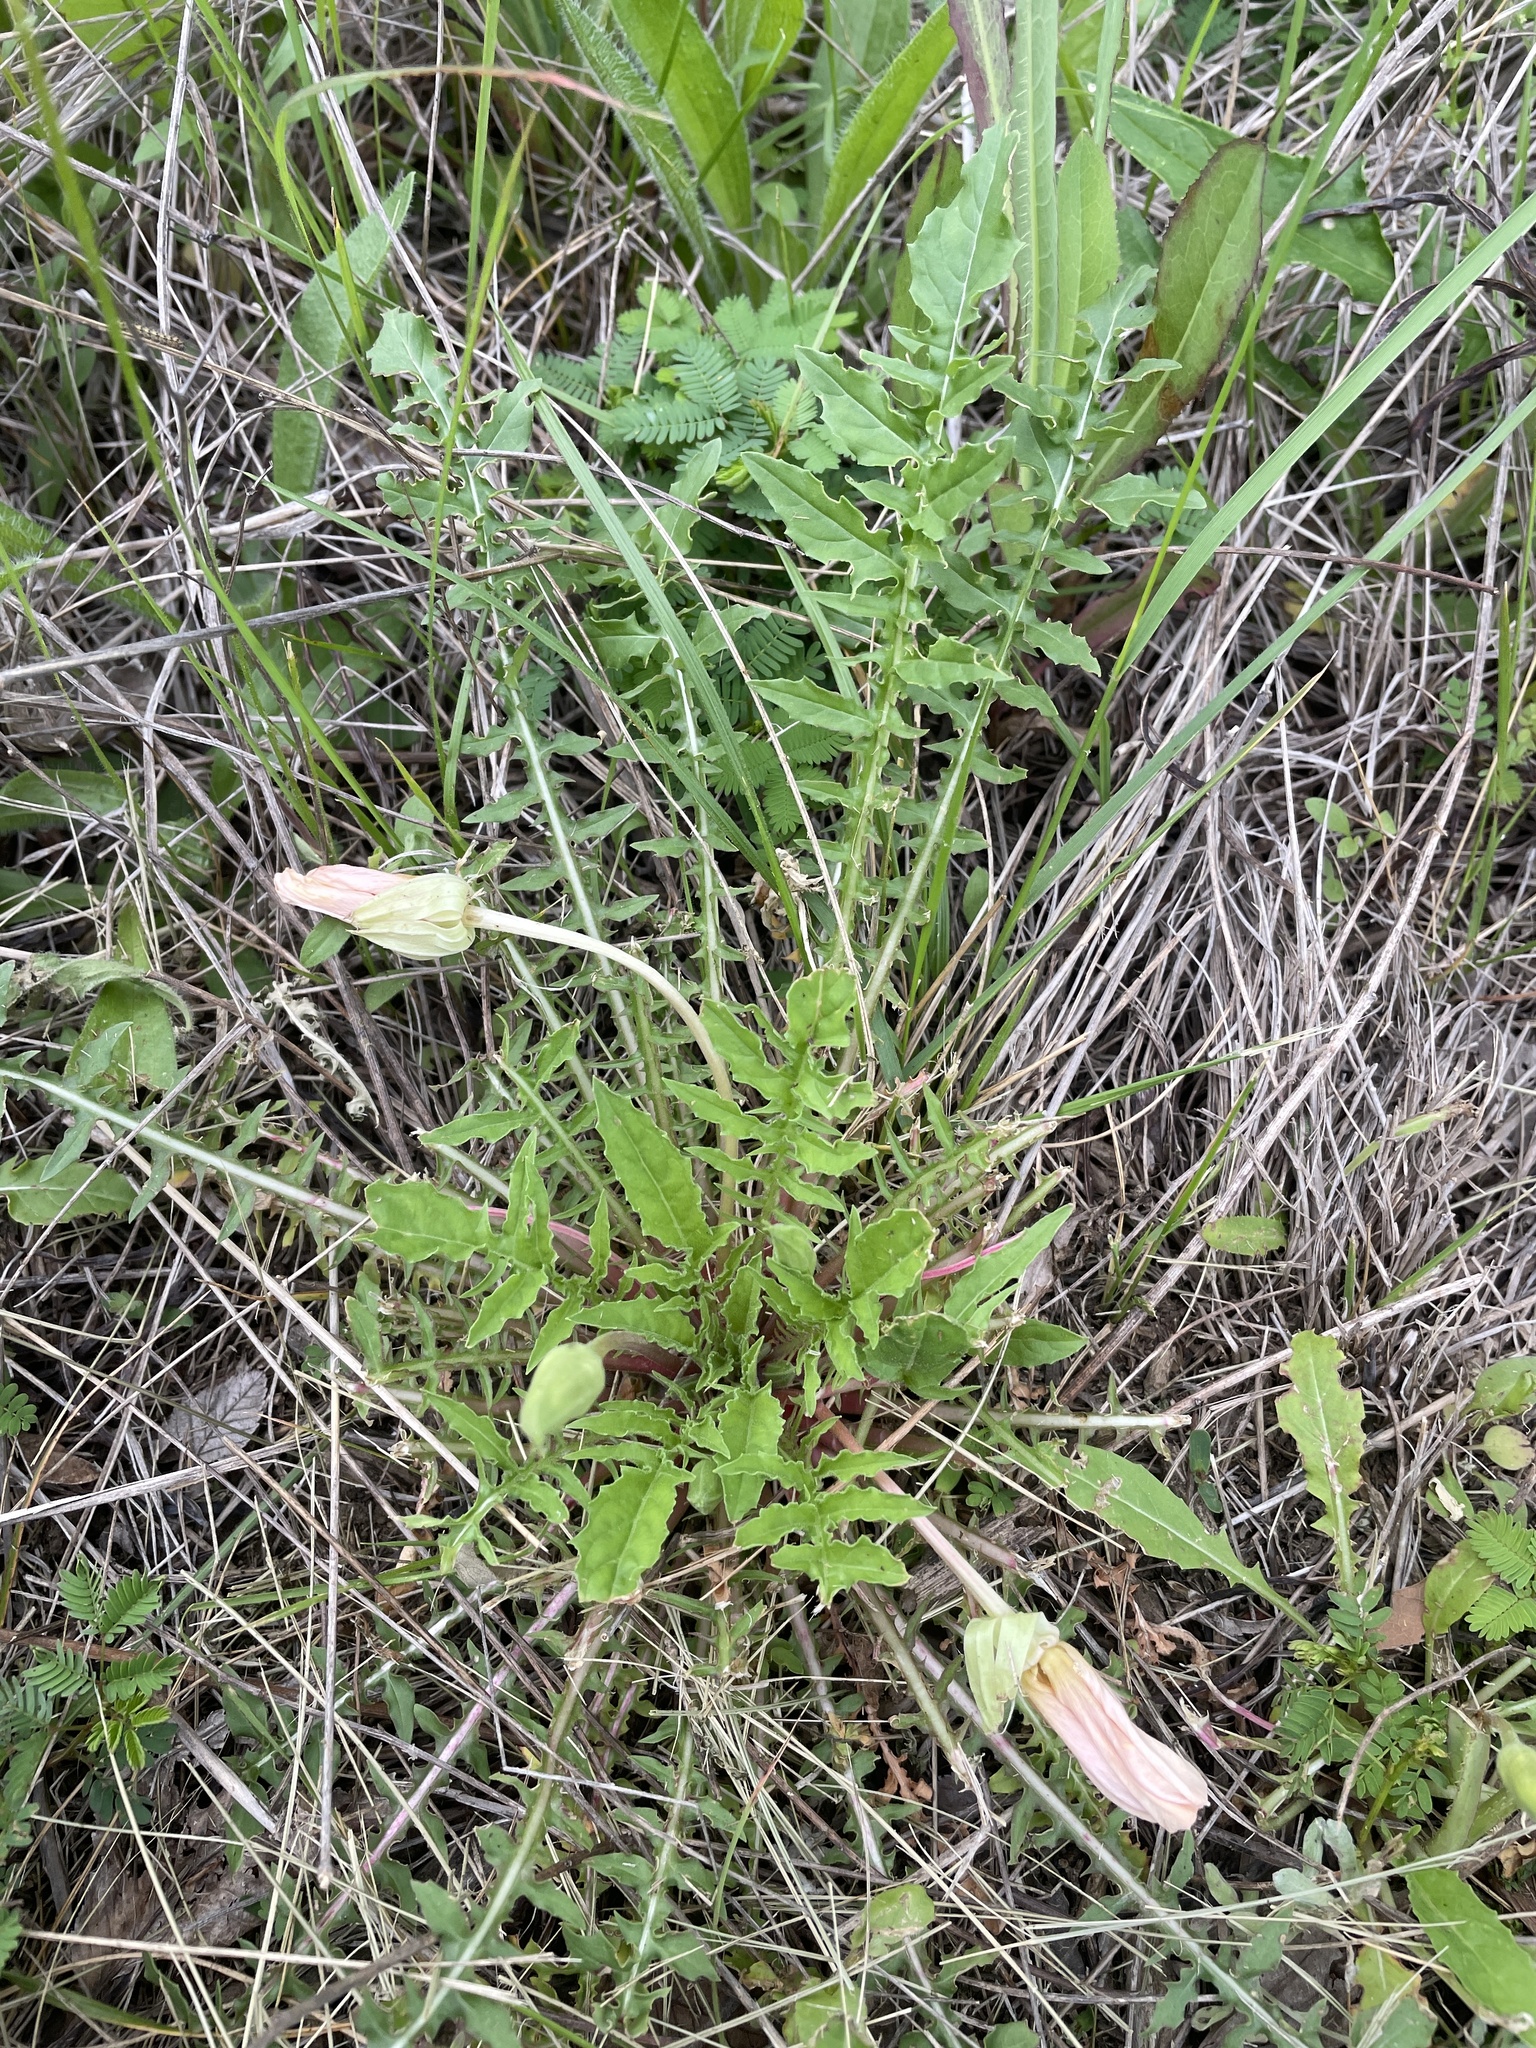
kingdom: Plantae
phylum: Tracheophyta
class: Magnoliopsida
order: Myrtales
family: Onagraceae
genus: Oenothera
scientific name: Oenothera triloba
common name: Sessile evening-primrose
